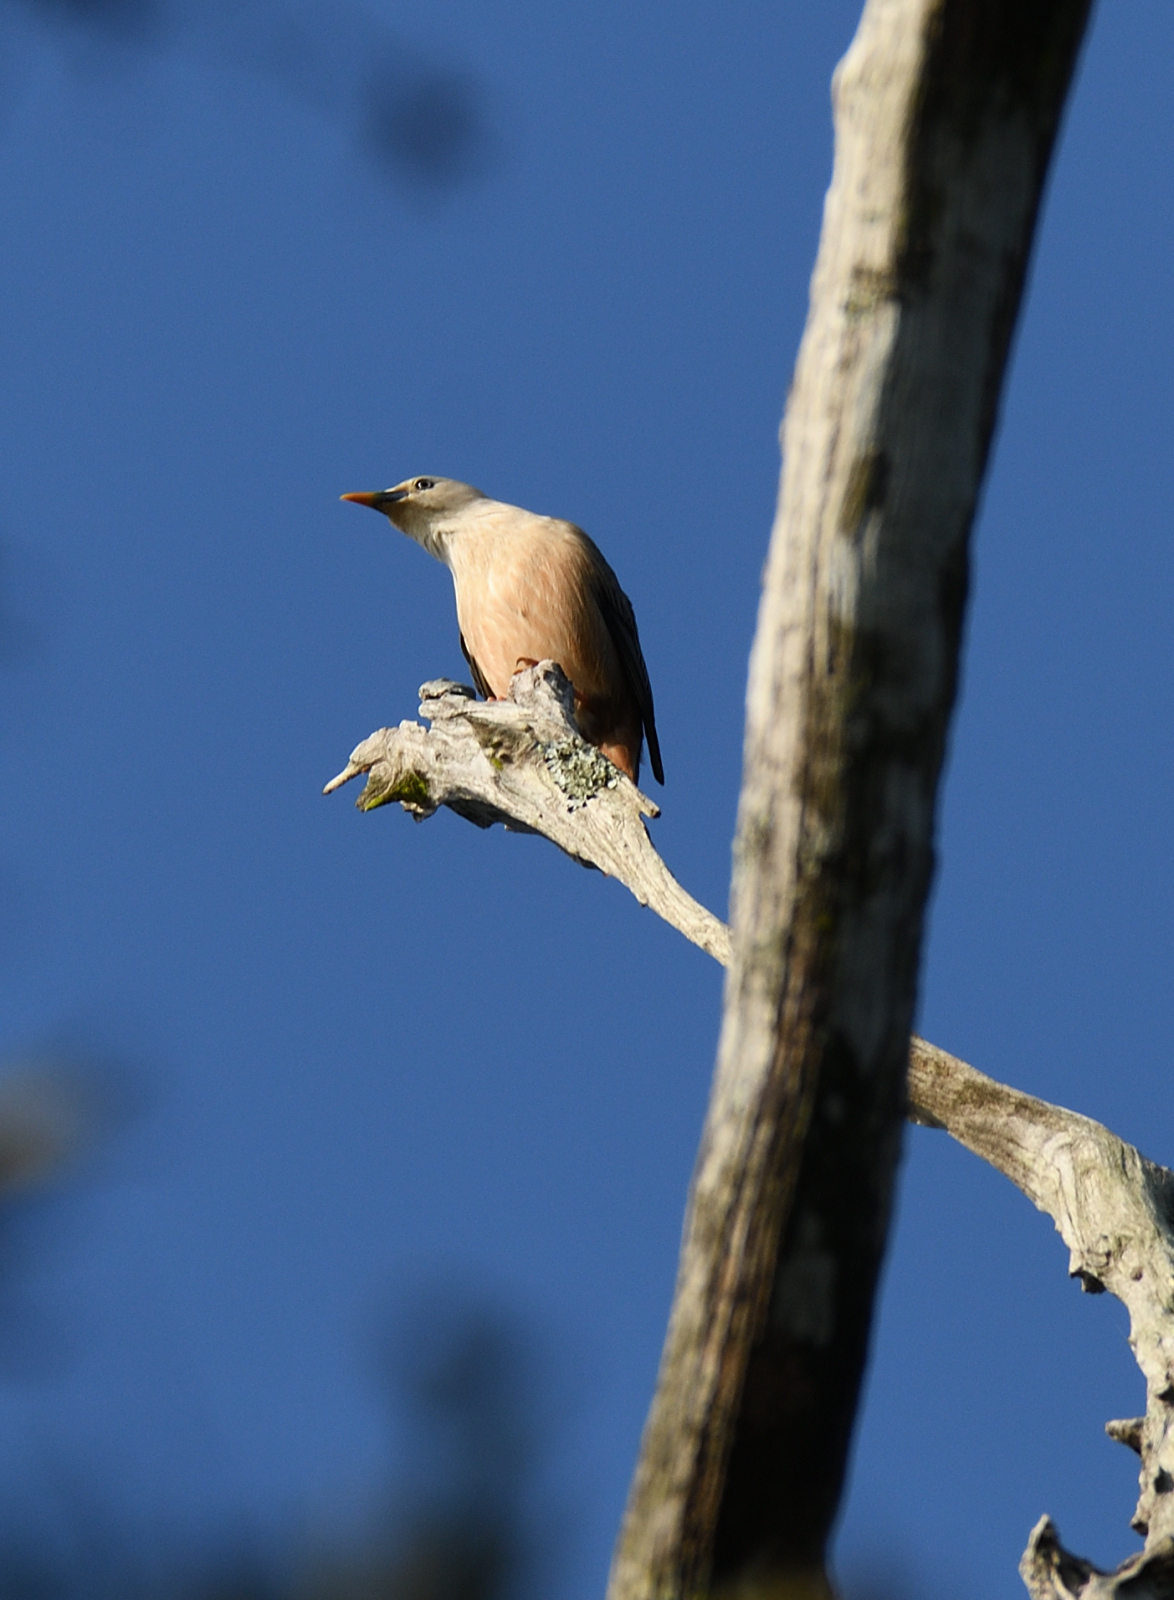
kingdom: Animalia
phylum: Chordata
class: Aves
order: Passeriformes
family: Sturnidae
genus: Sturnia
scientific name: Sturnia blythii
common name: Malabar starling
